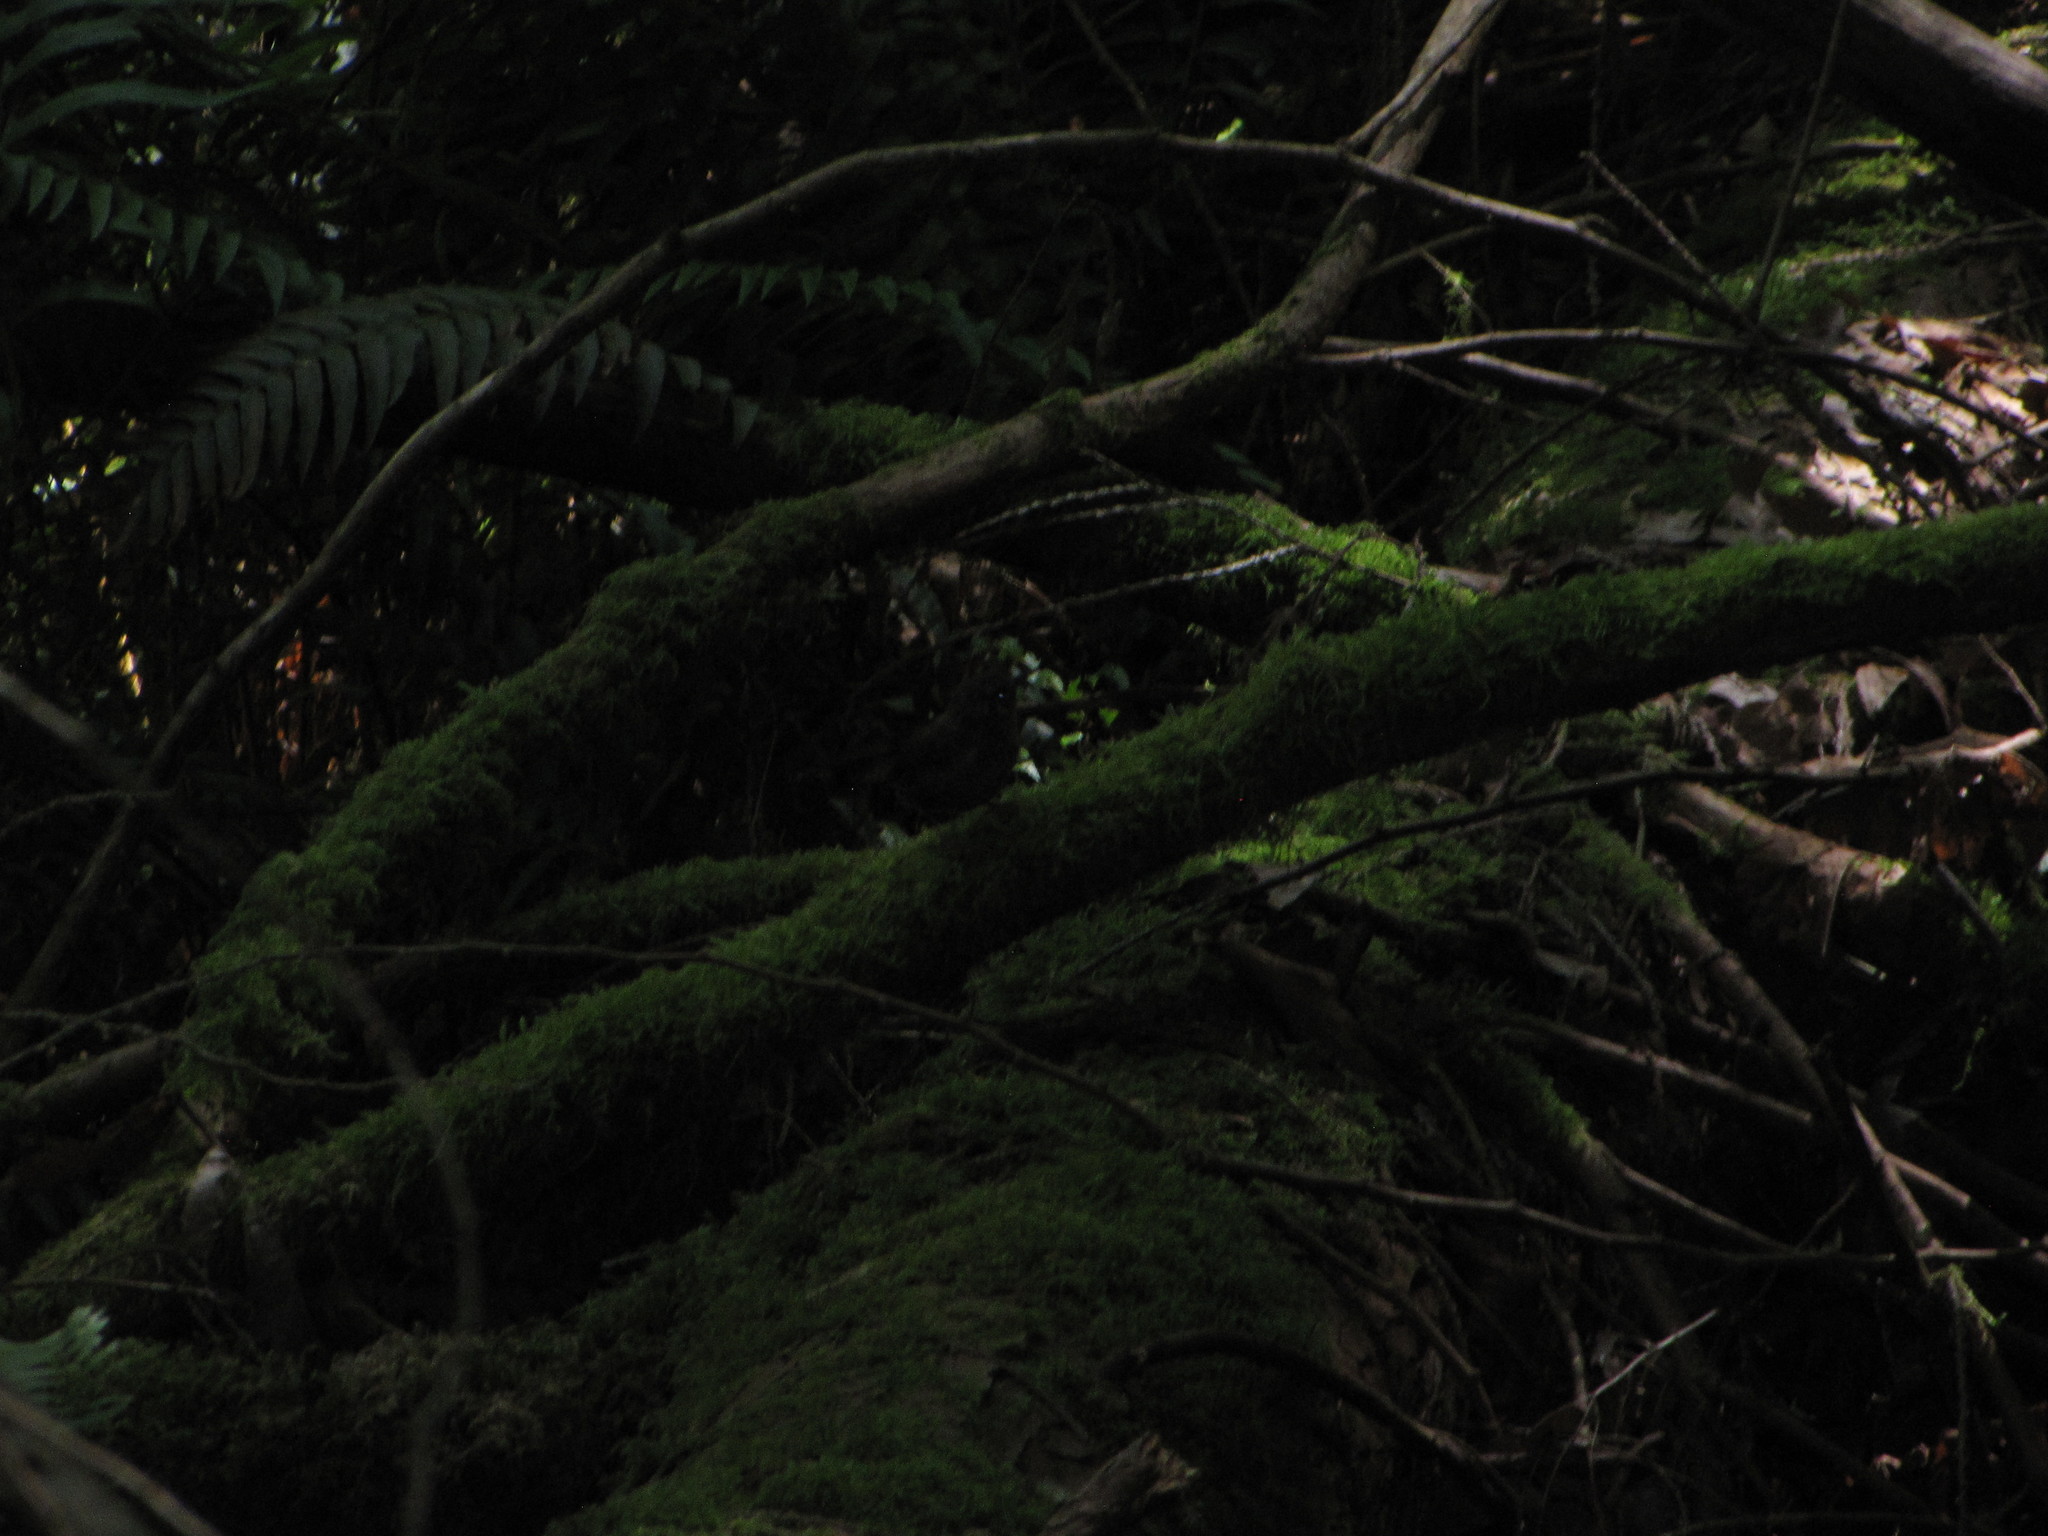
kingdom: Animalia
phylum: Chordata
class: Aves
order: Passeriformes
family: Troglodytidae
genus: Troglodytes
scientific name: Troglodytes pacificus
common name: Pacific wren
